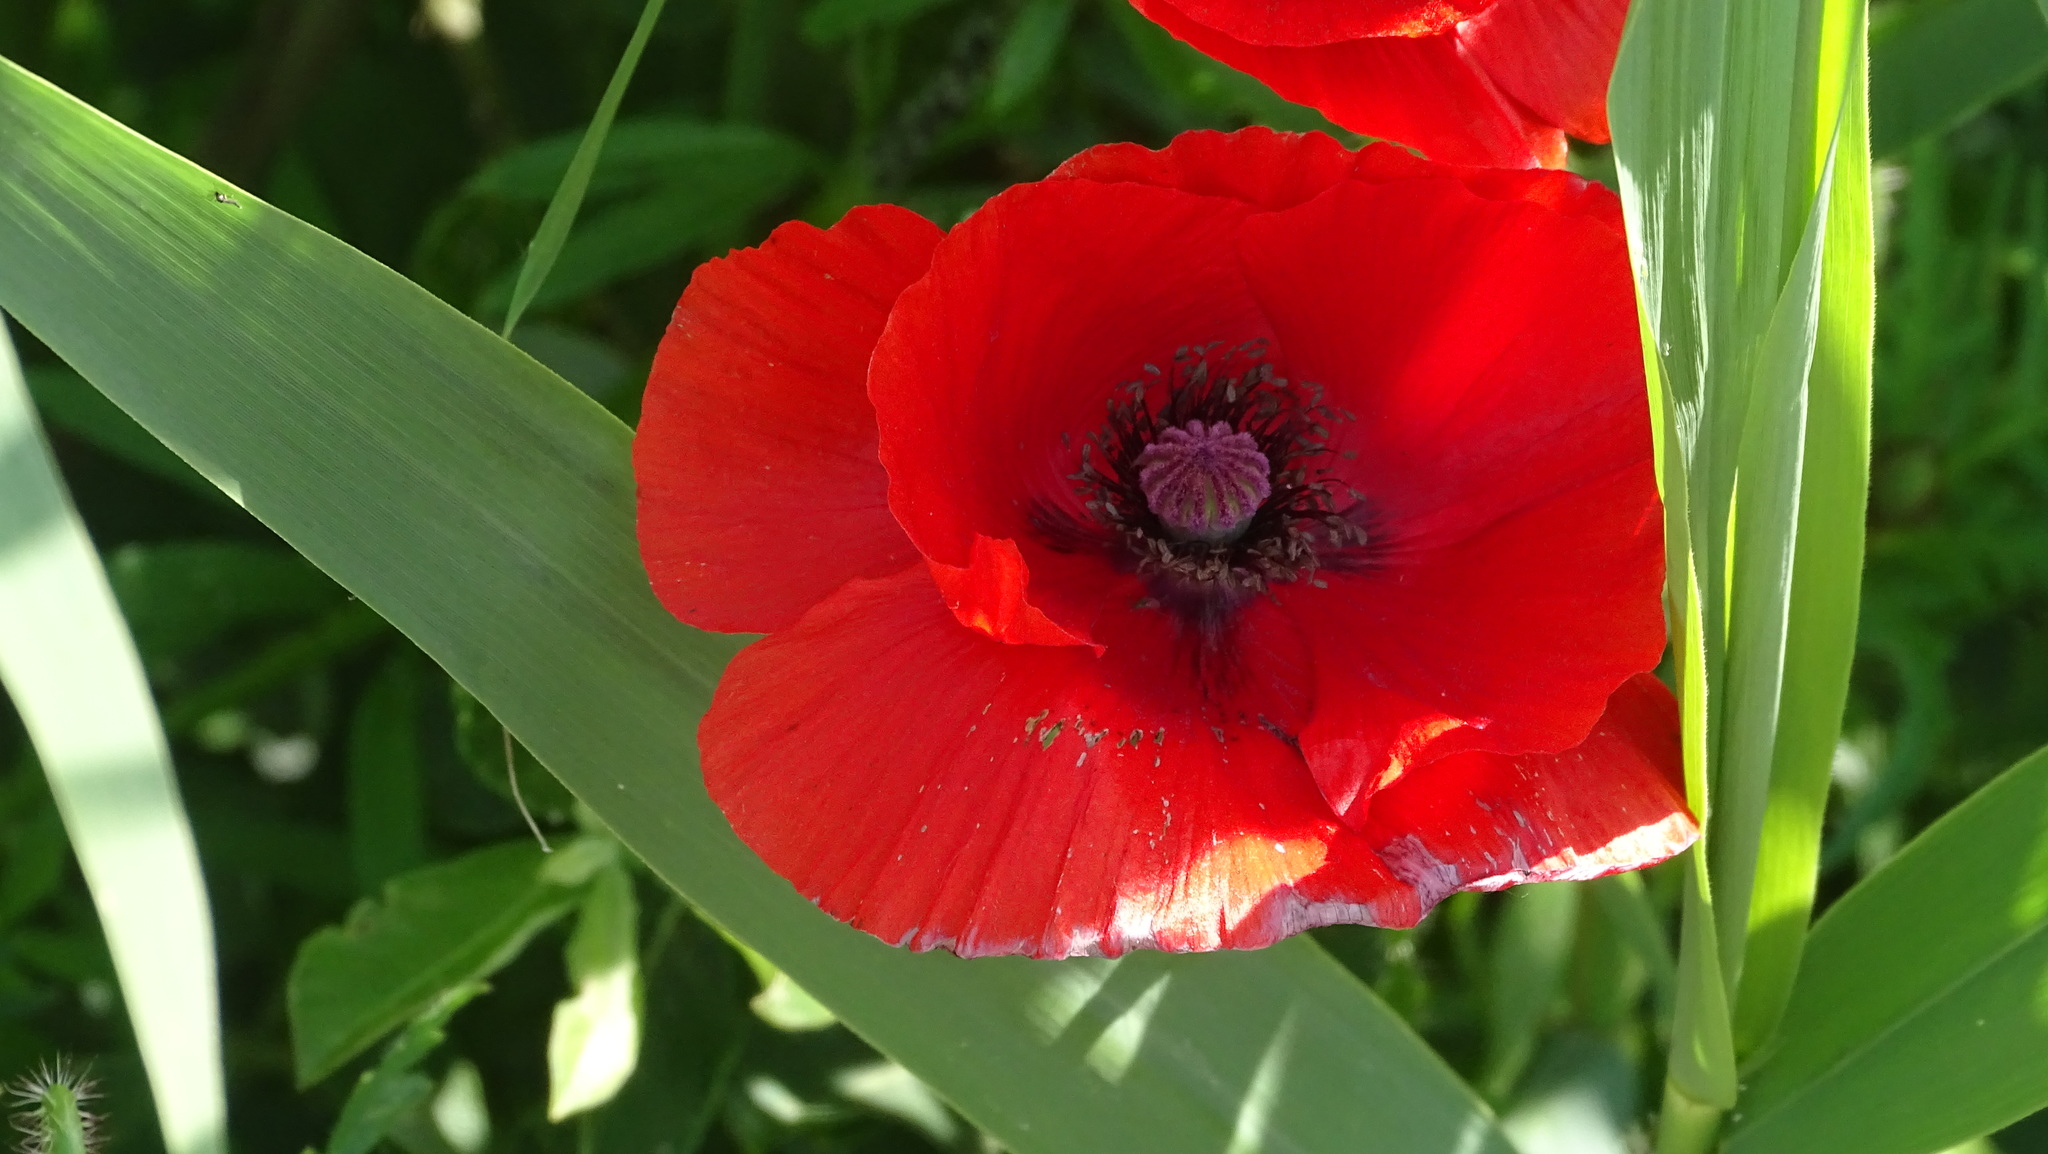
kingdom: Plantae
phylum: Tracheophyta
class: Magnoliopsida
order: Ranunculales
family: Papaveraceae
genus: Papaver
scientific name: Papaver rhoeas
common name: Corn poppy
